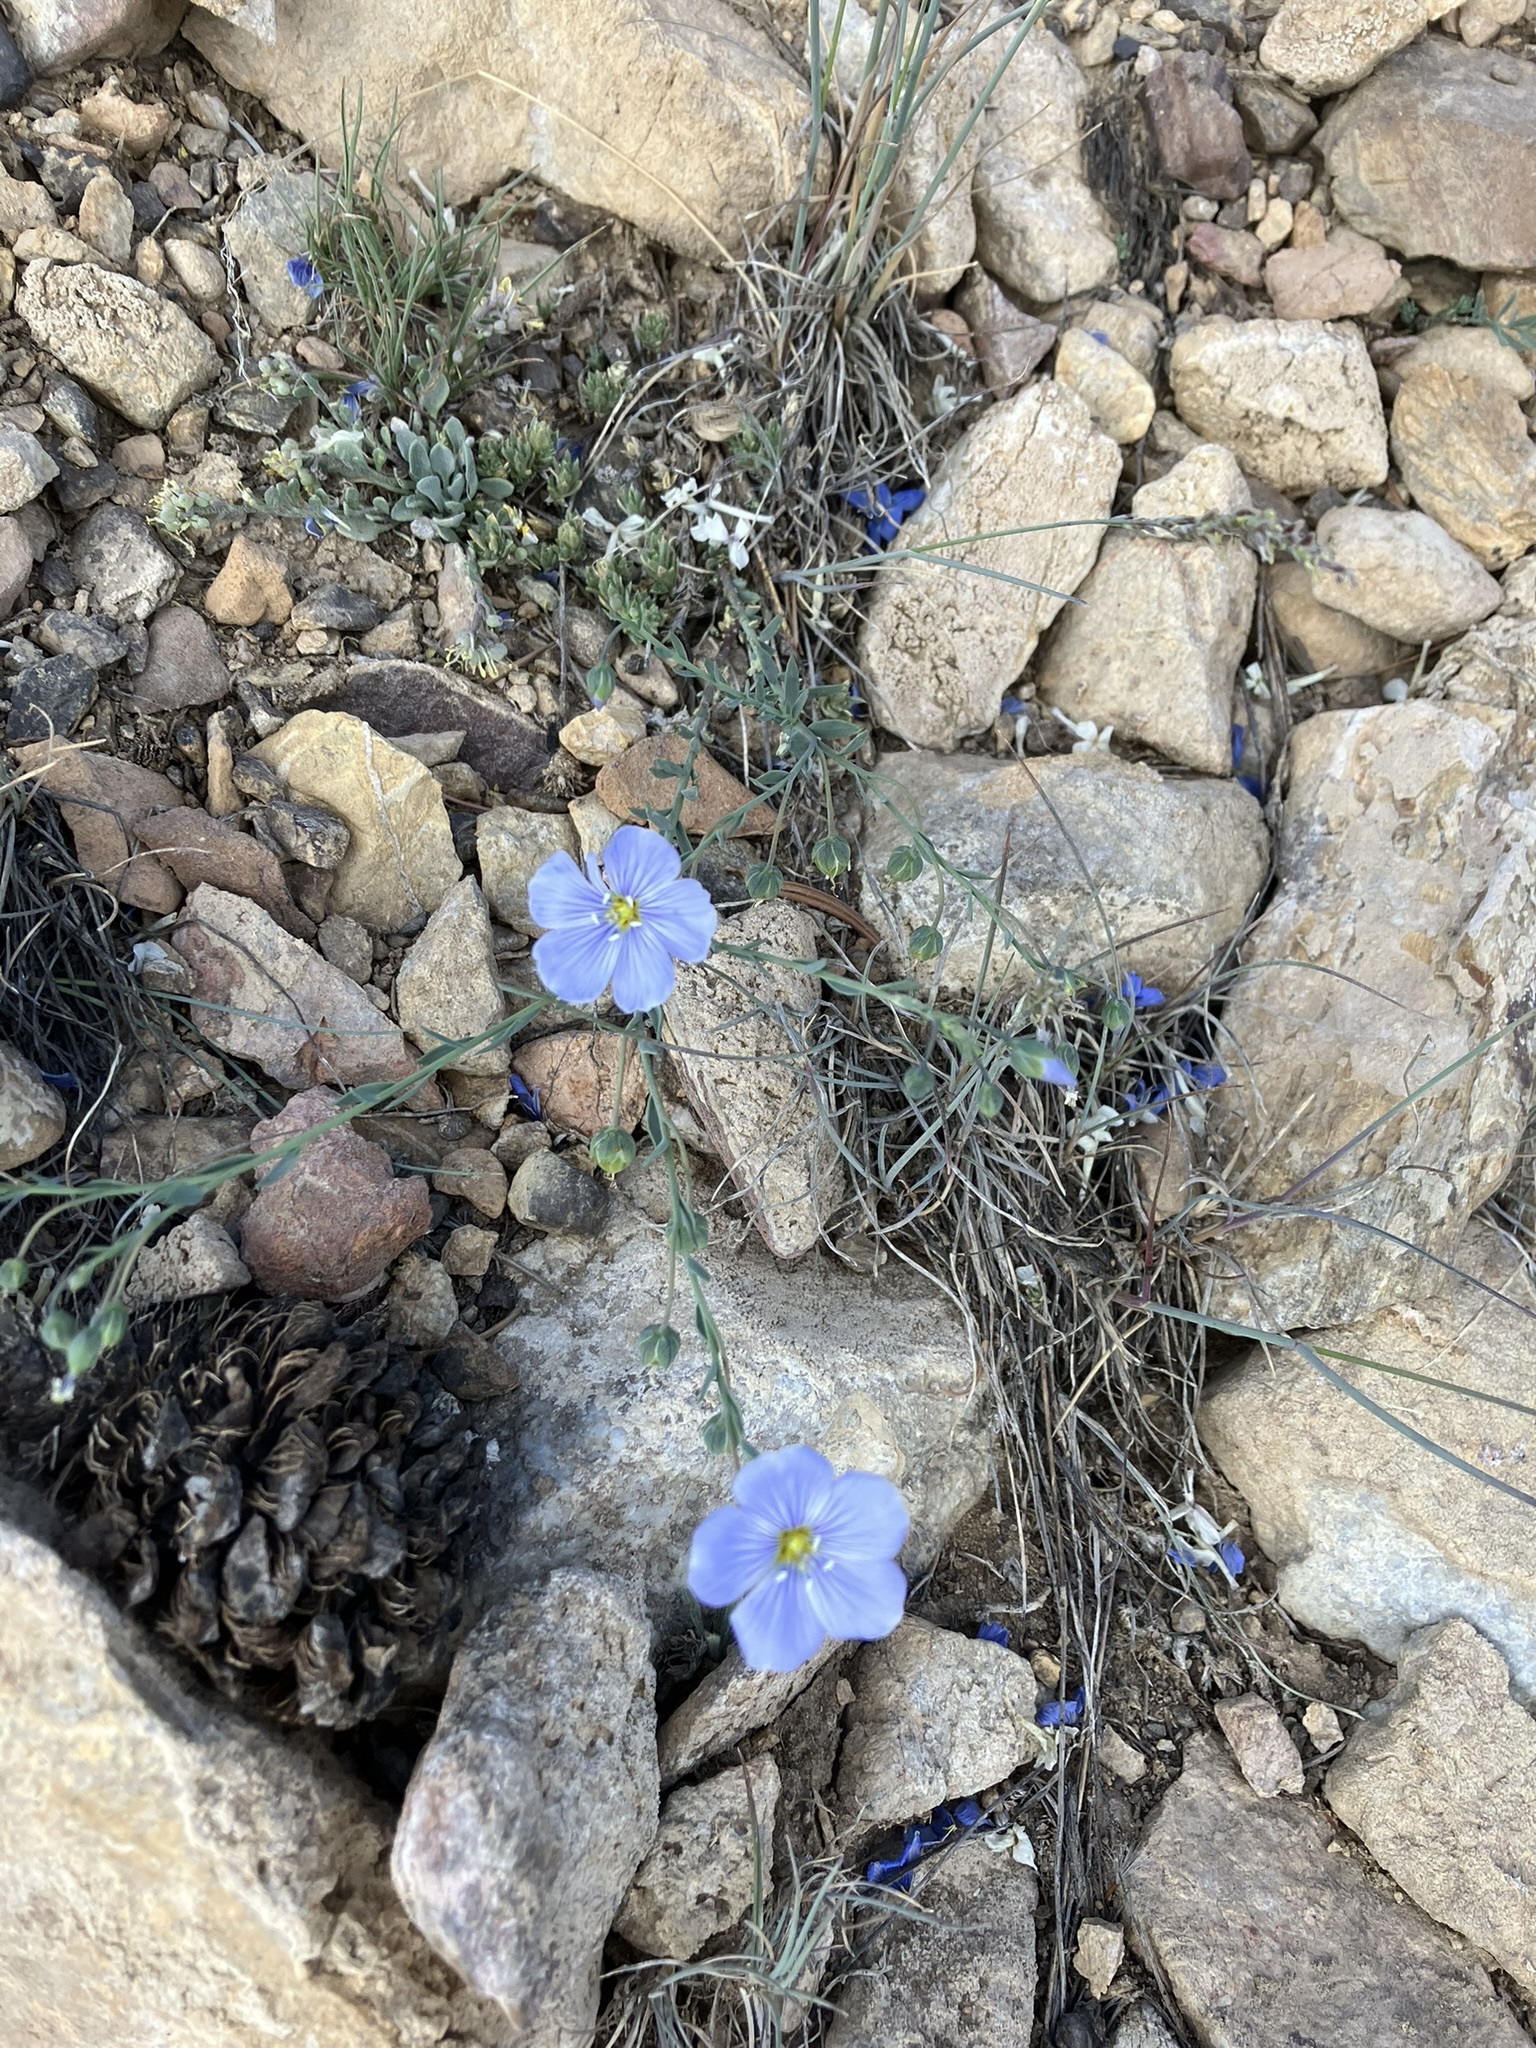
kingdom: Plantae
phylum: Tracheophyta
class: Magnoliopsida
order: Malpighiales
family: Linaceae
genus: Linum
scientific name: Linum lewisii
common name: Prairie flax
